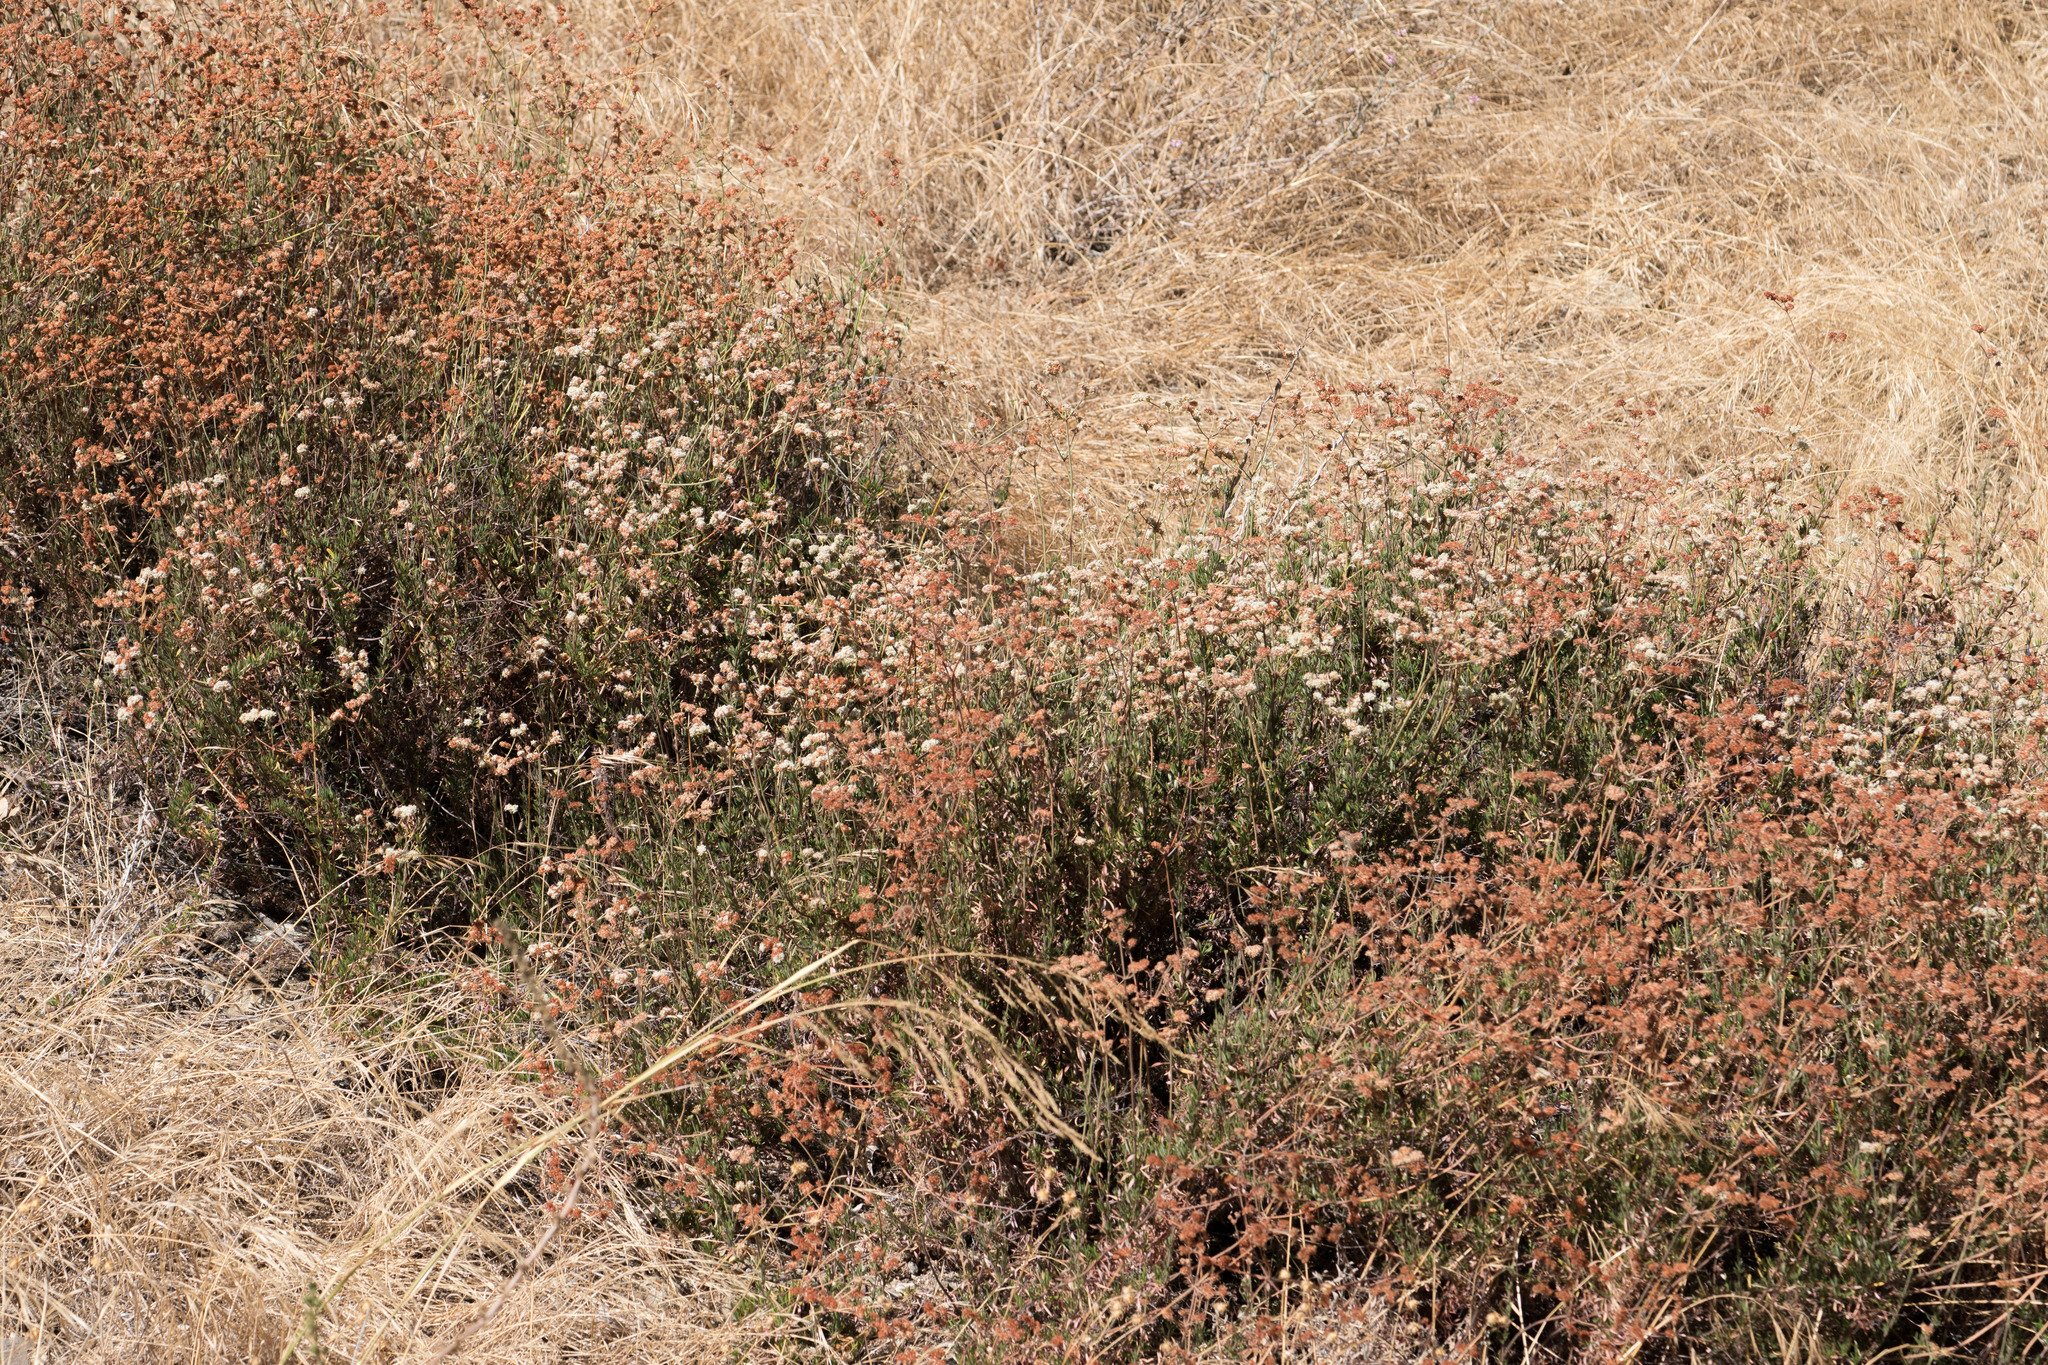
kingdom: Plantae
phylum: Tracheophyta
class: Magnoliopsida
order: Caryophyllales
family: Polygonaceae
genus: Eriogonum
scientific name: Eriogonum fasciculatum
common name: California wild buckwheat
